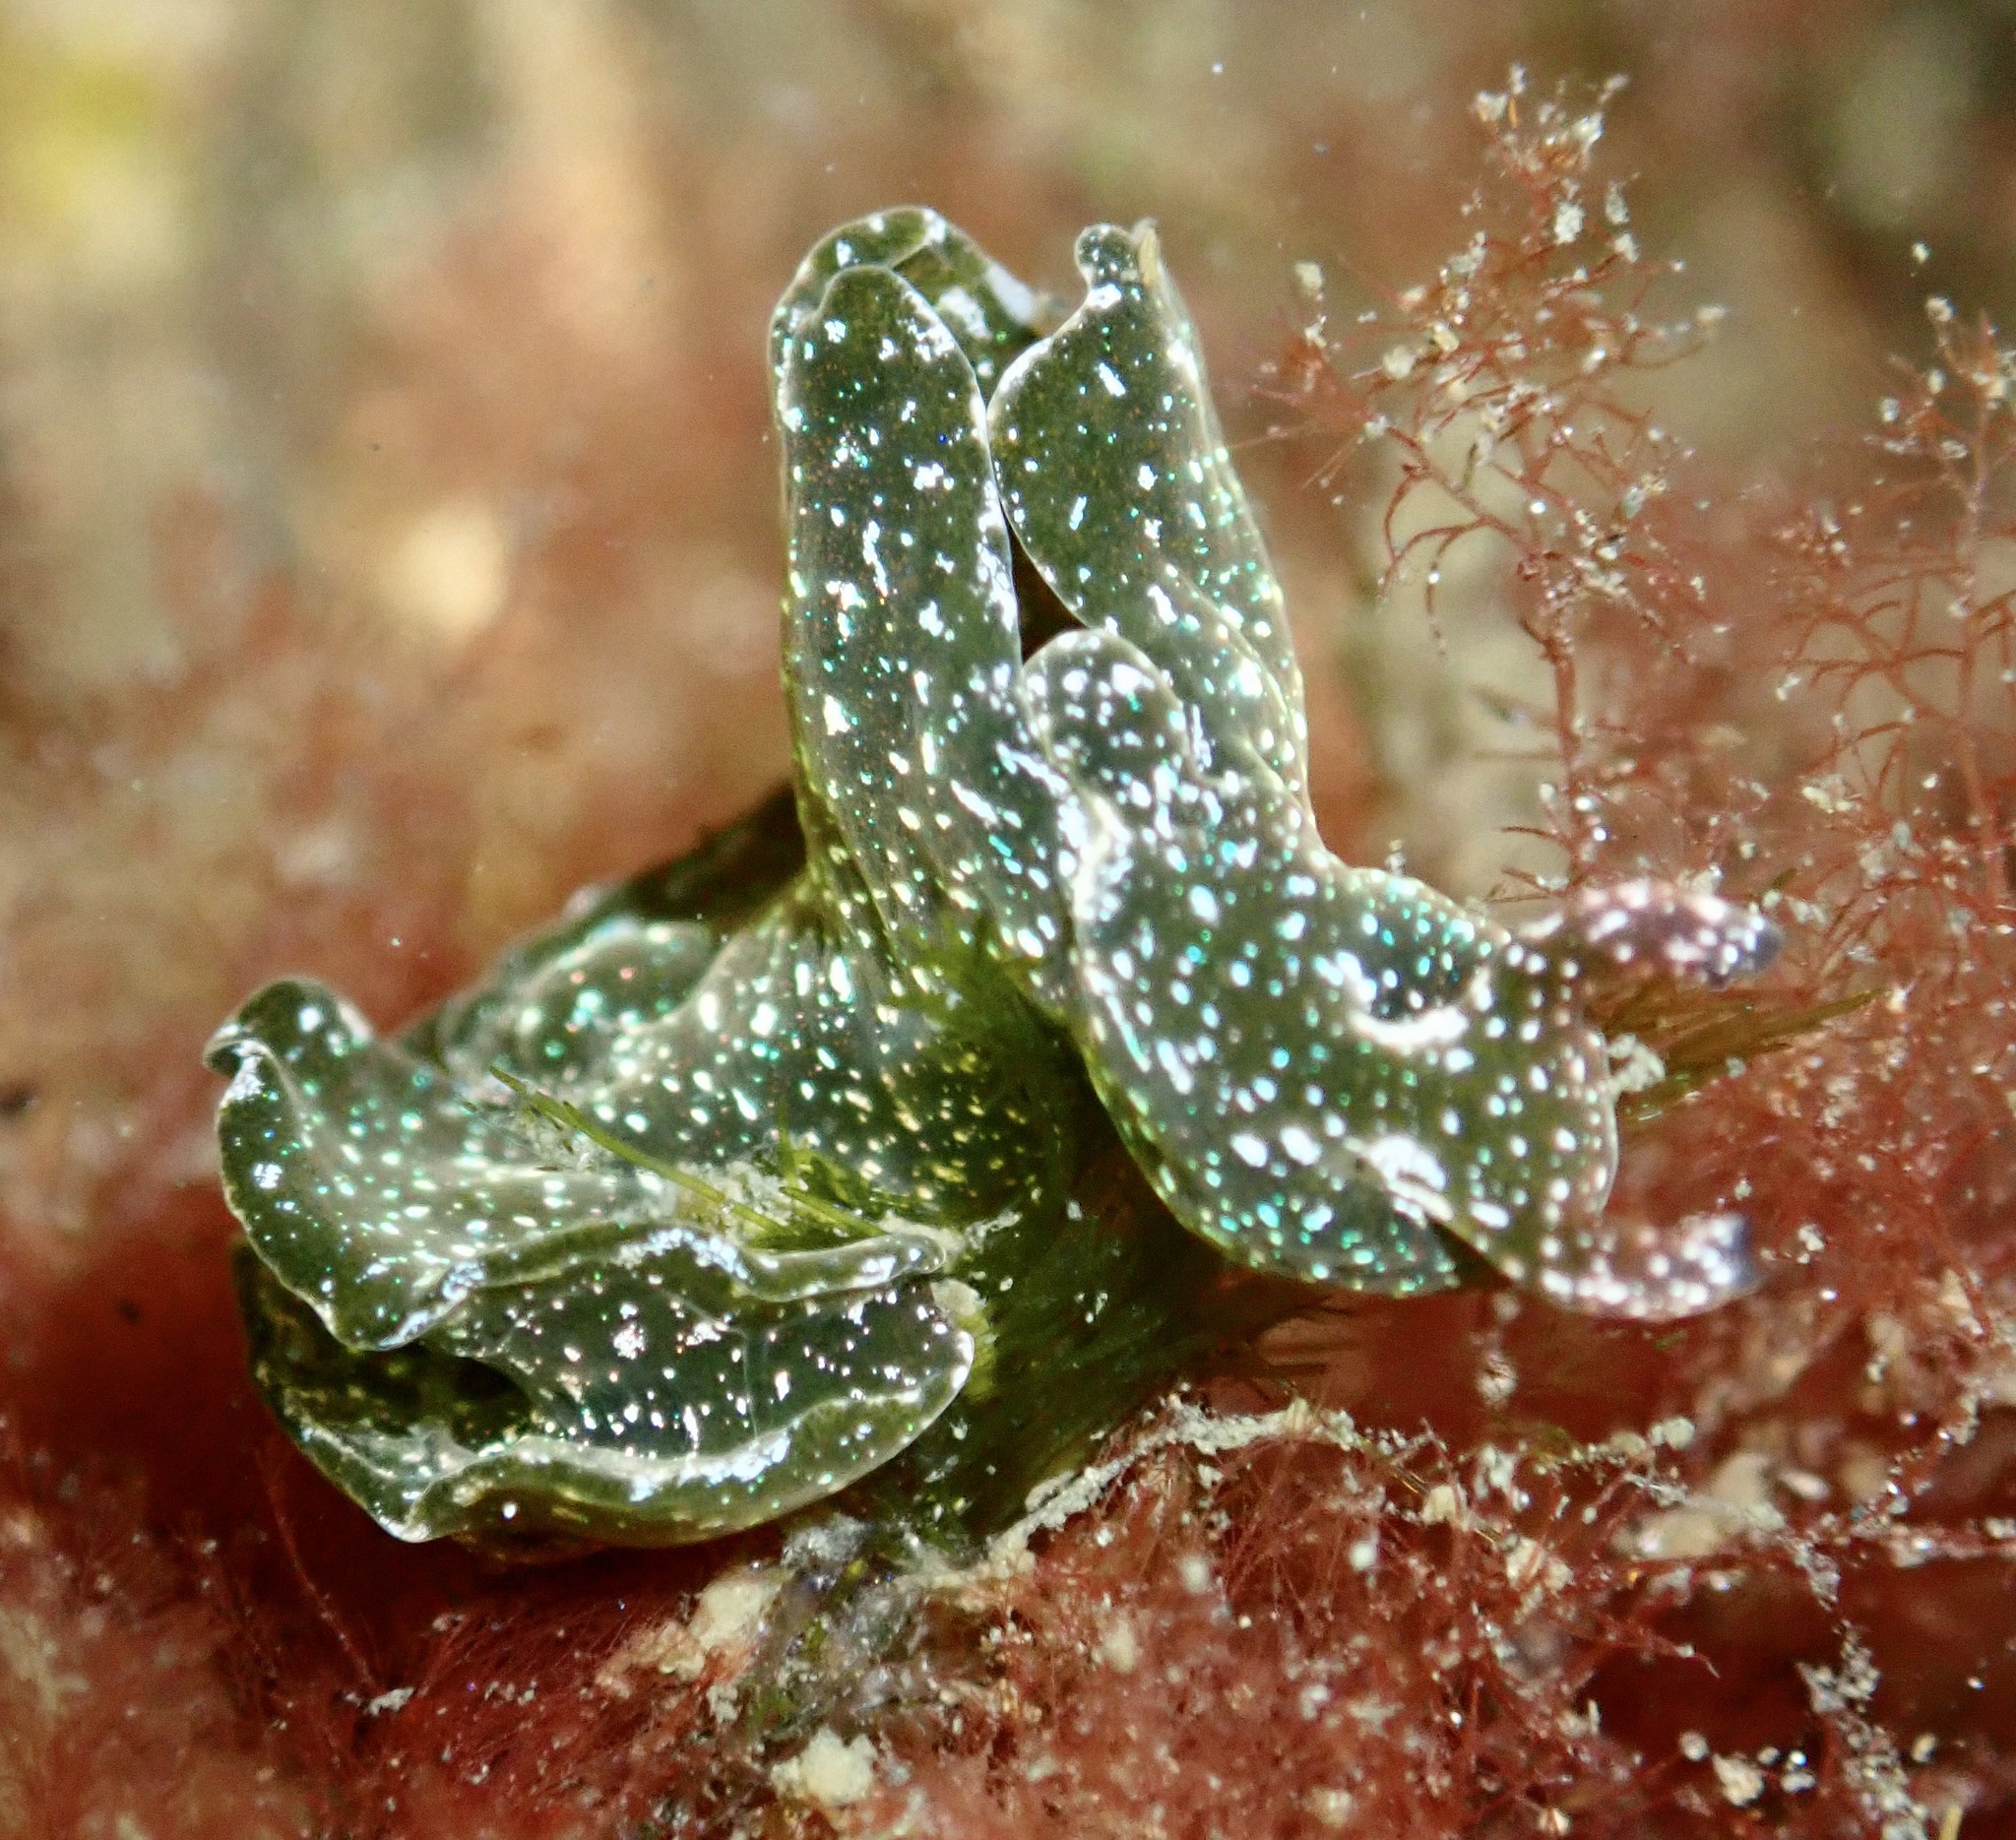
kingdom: Animalia
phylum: Mollusca
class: Gastropoda
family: Plakobranchidae
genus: Elysia
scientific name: Elysia viridis
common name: Green elysia
